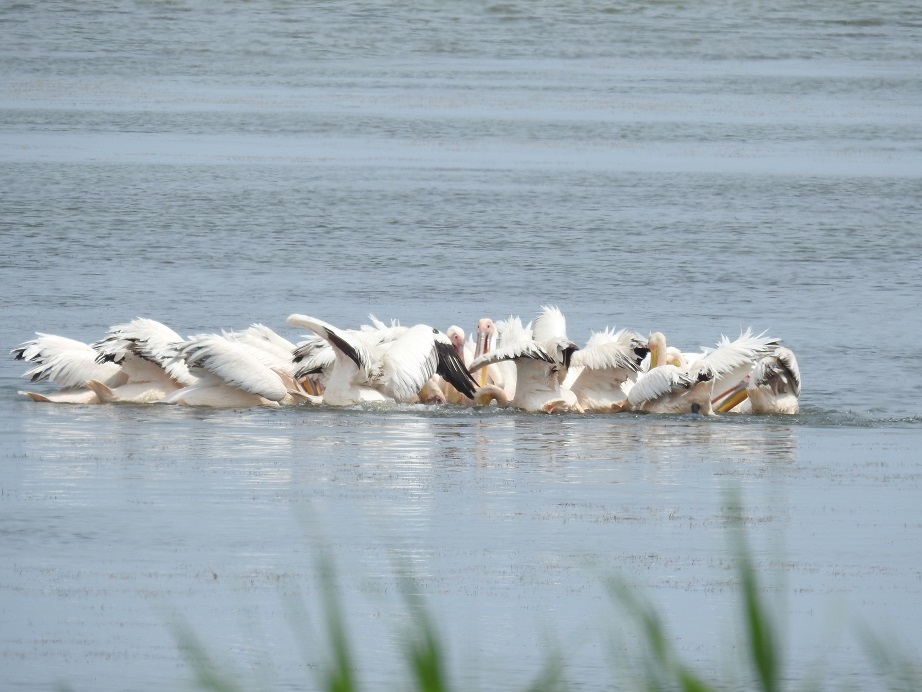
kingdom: Animalia
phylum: Chordata
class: Aves
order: Pelecaniformes
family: Pelecanidae
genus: Pelecanus
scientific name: Pelecanus onocrotalus
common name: Great white pelican
